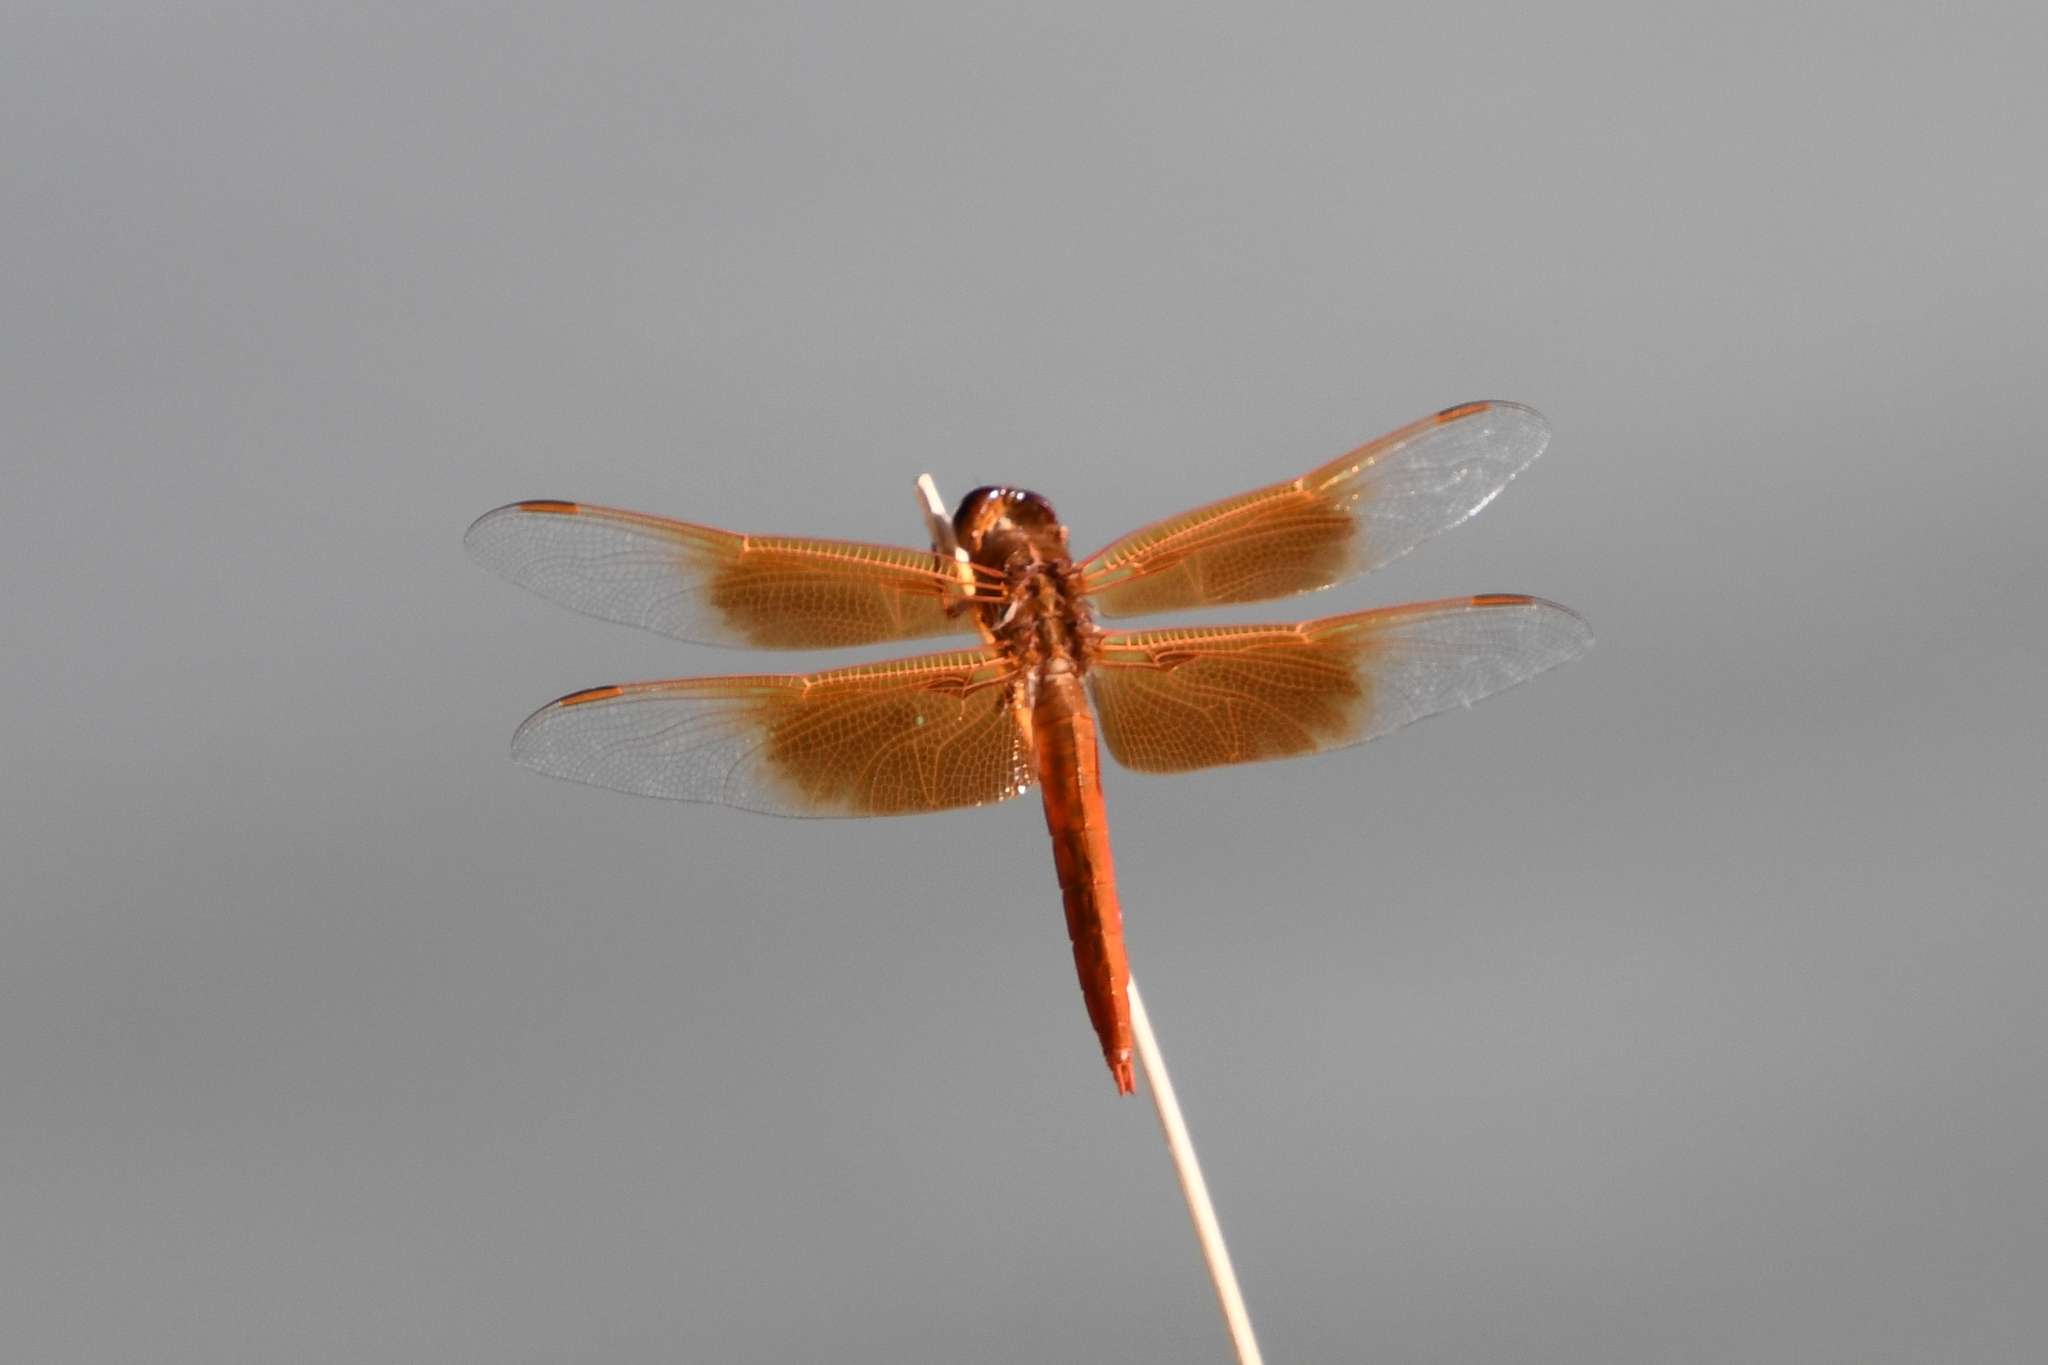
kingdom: Animalia
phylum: Arthropoda
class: Insecta
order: Odonata
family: Libellulidae
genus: Libellula
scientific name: Libellula saturata
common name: Flame skimmer
